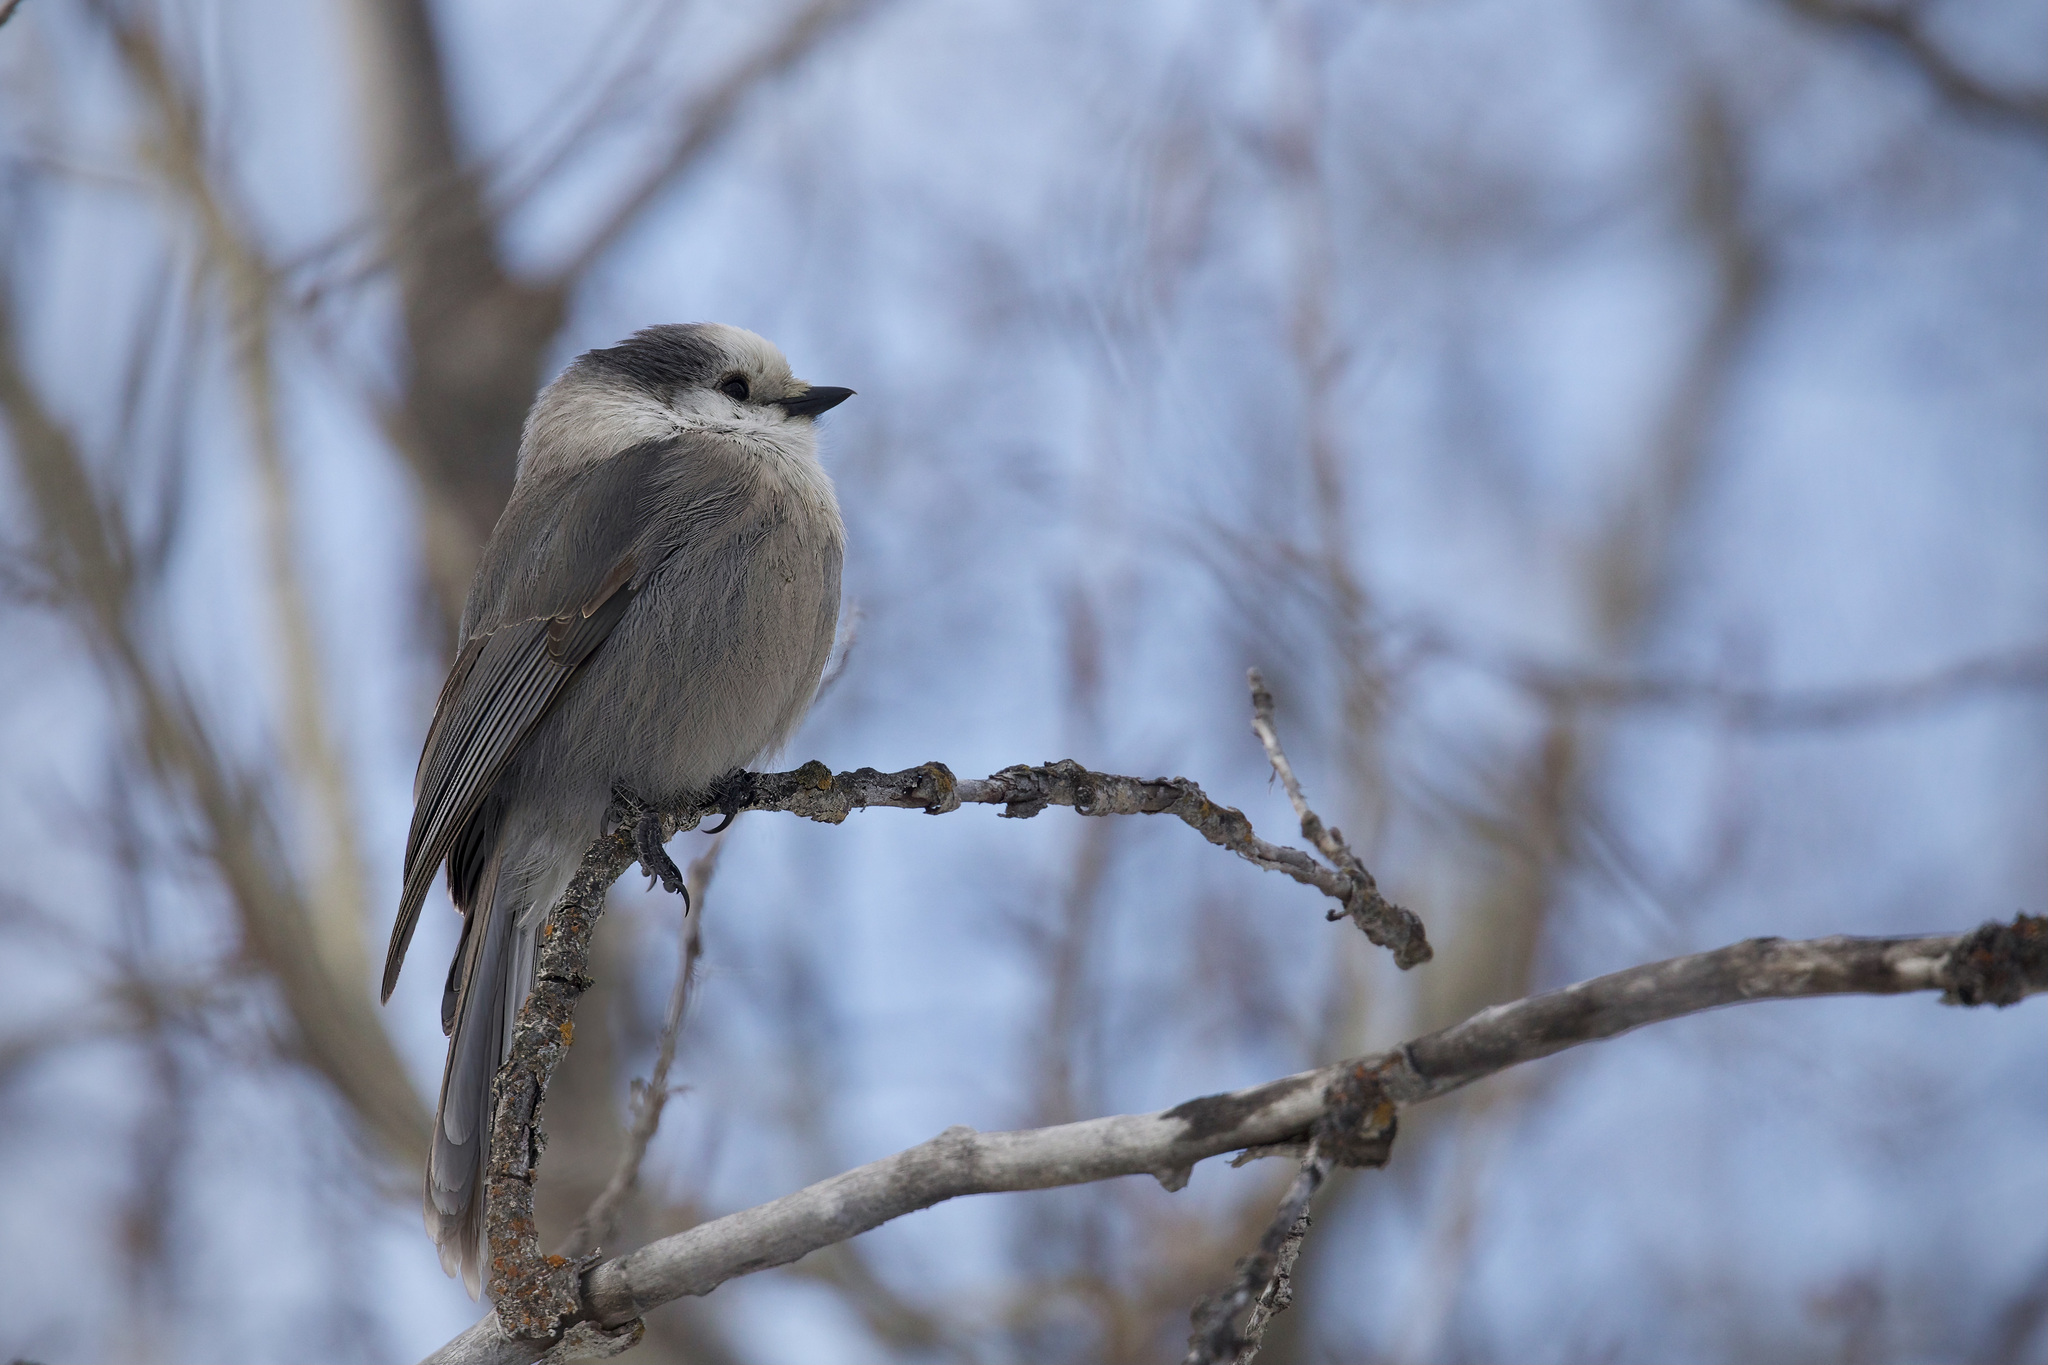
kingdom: Animalia
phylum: Chordata
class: Aves
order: Passeriformes
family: Corvidae
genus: Perisoreus
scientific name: Perisoreus canadensis
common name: Gray jay
